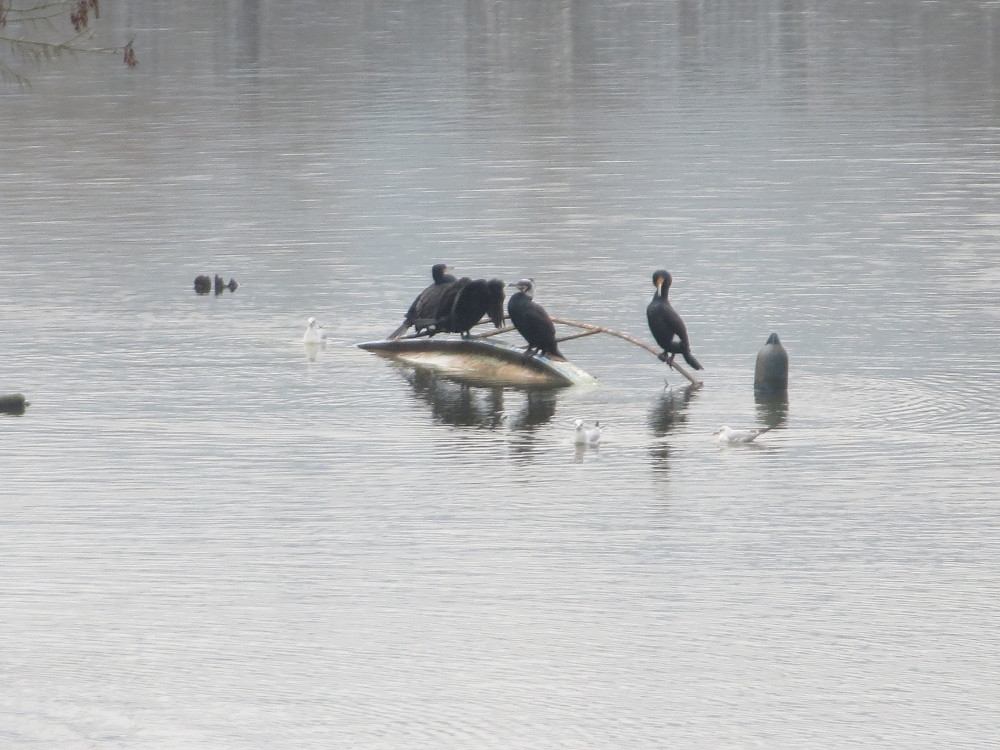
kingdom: Animalia
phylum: Chordata
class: Aves
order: Suliformes
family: Phalacrocoracidae
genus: Phalacrocorax
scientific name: Phalacrocorax carbo
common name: Great cormorant
